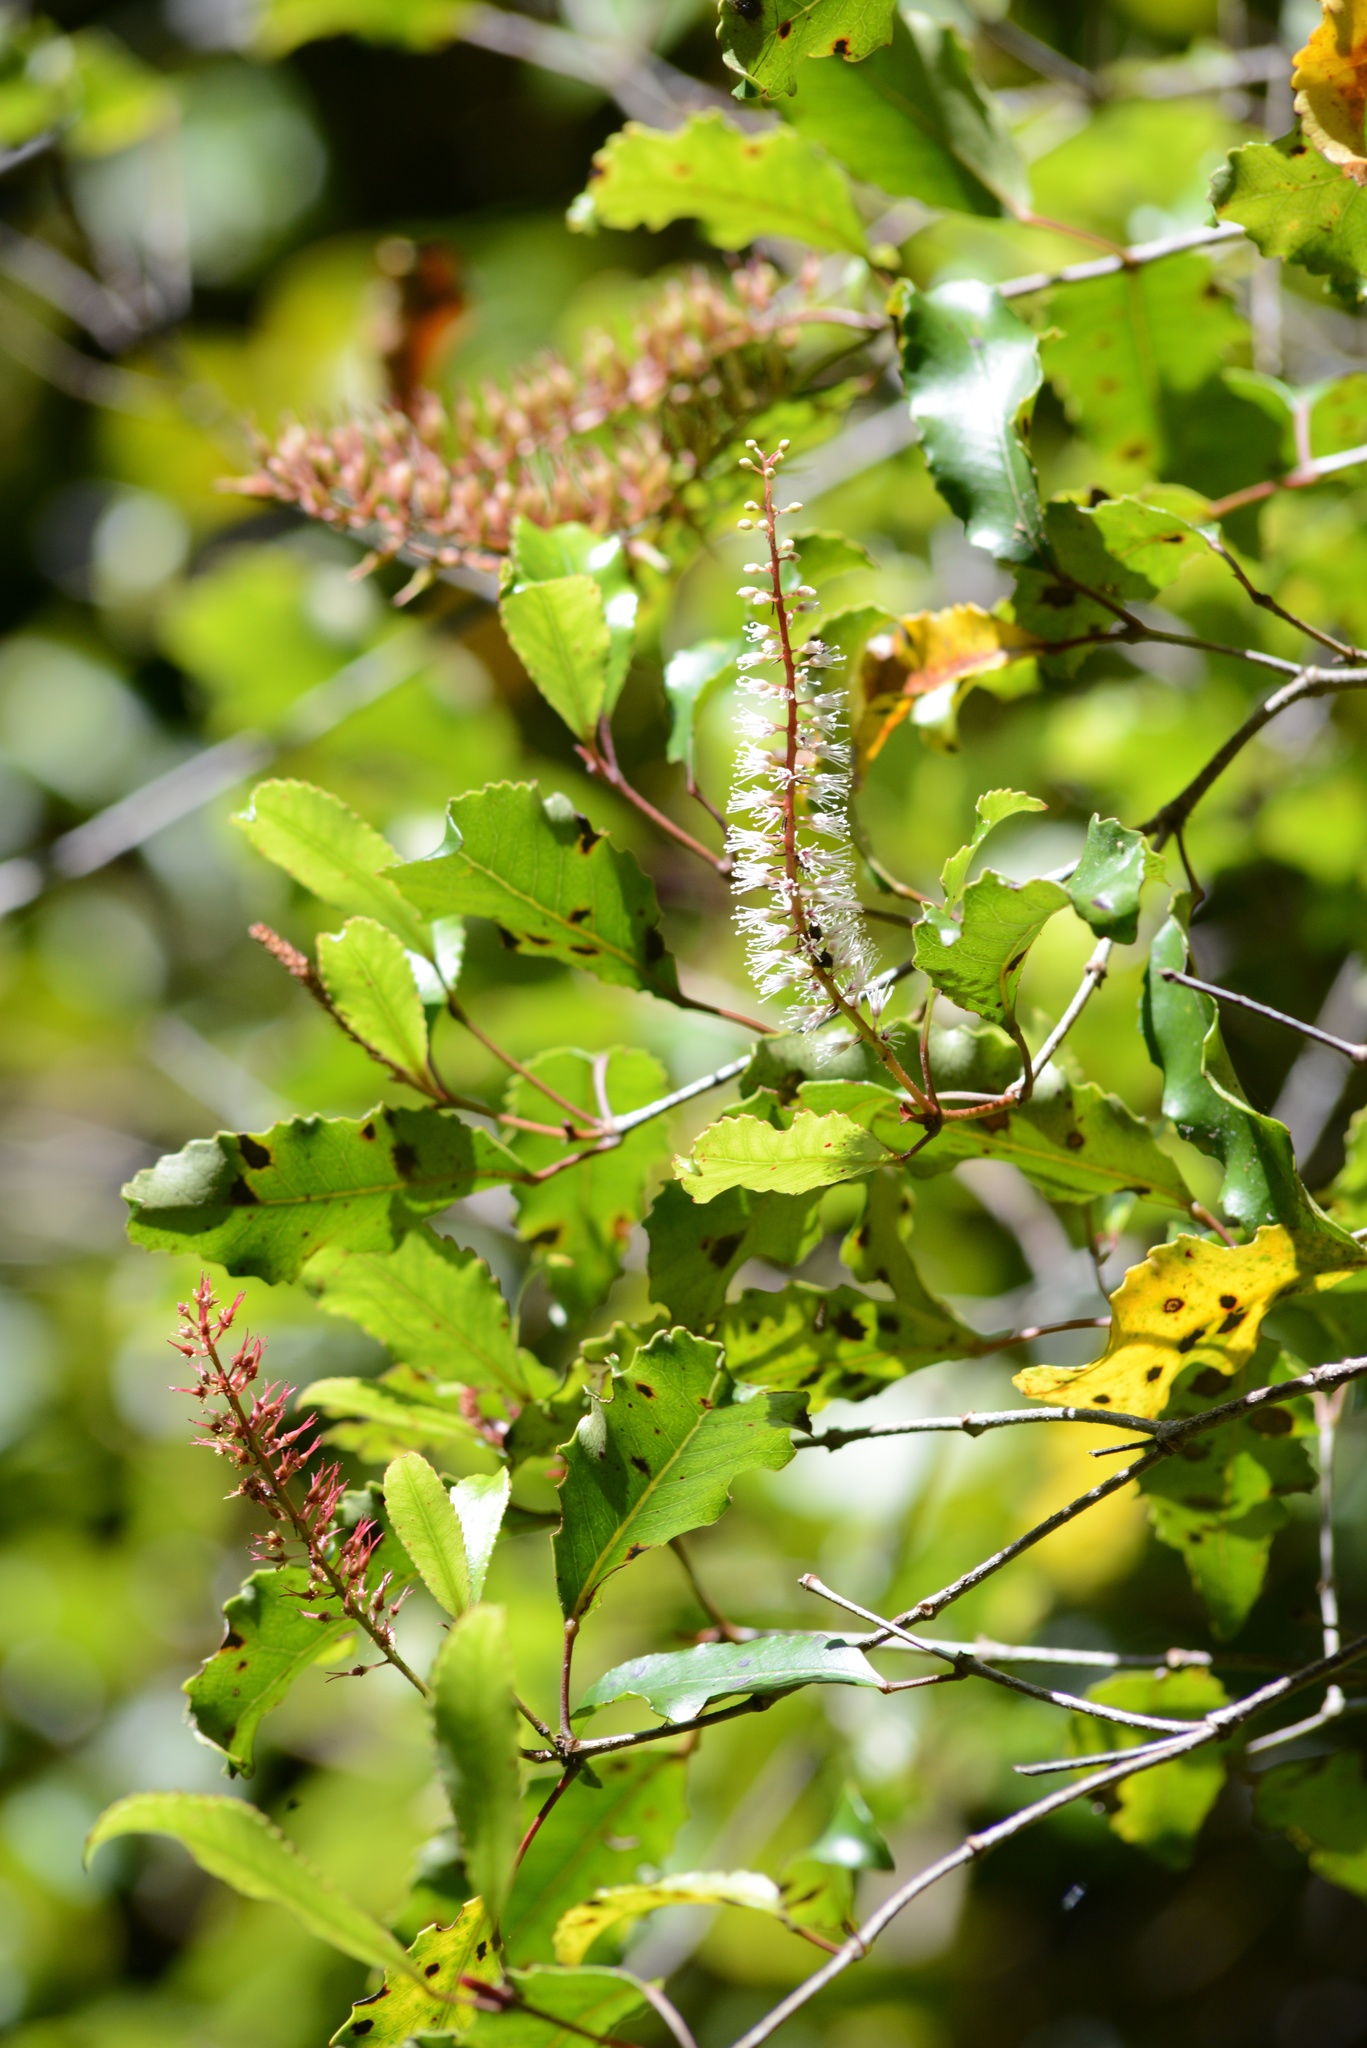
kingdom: Plantae
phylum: Tracheophyta
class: Magnoliopsida
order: Oxalidales
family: Cunoniaceae
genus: Pterophylla
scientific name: Pterophylla racemosa
